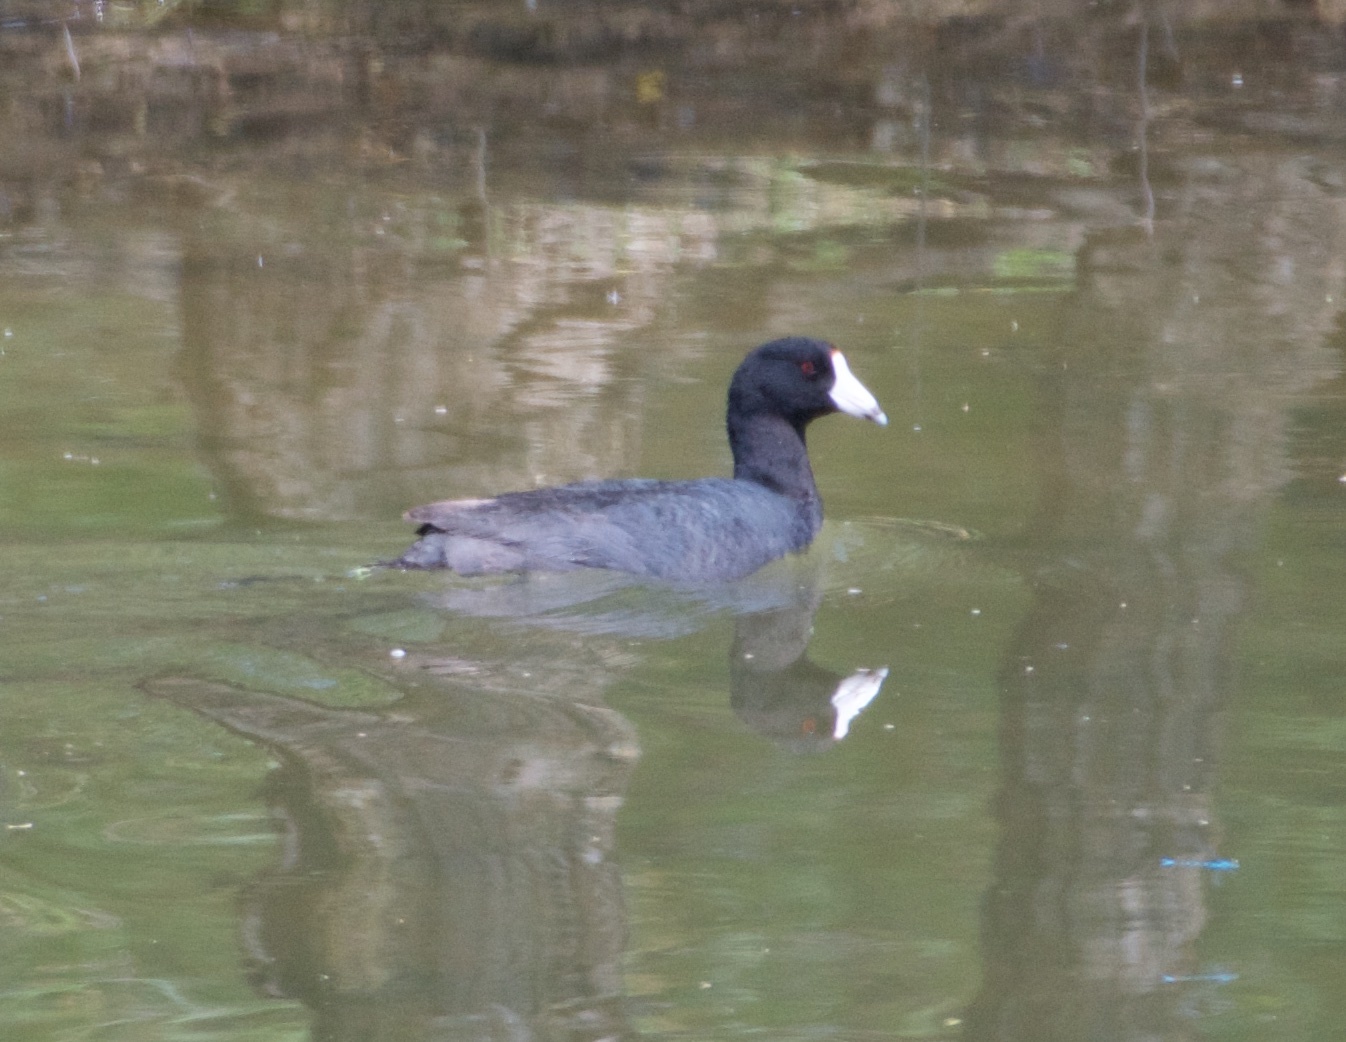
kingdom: Animalia
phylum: Chordata
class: Aves
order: Gruiformes
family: Rallidae
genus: Fulica
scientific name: Fulica americana
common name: American coot
